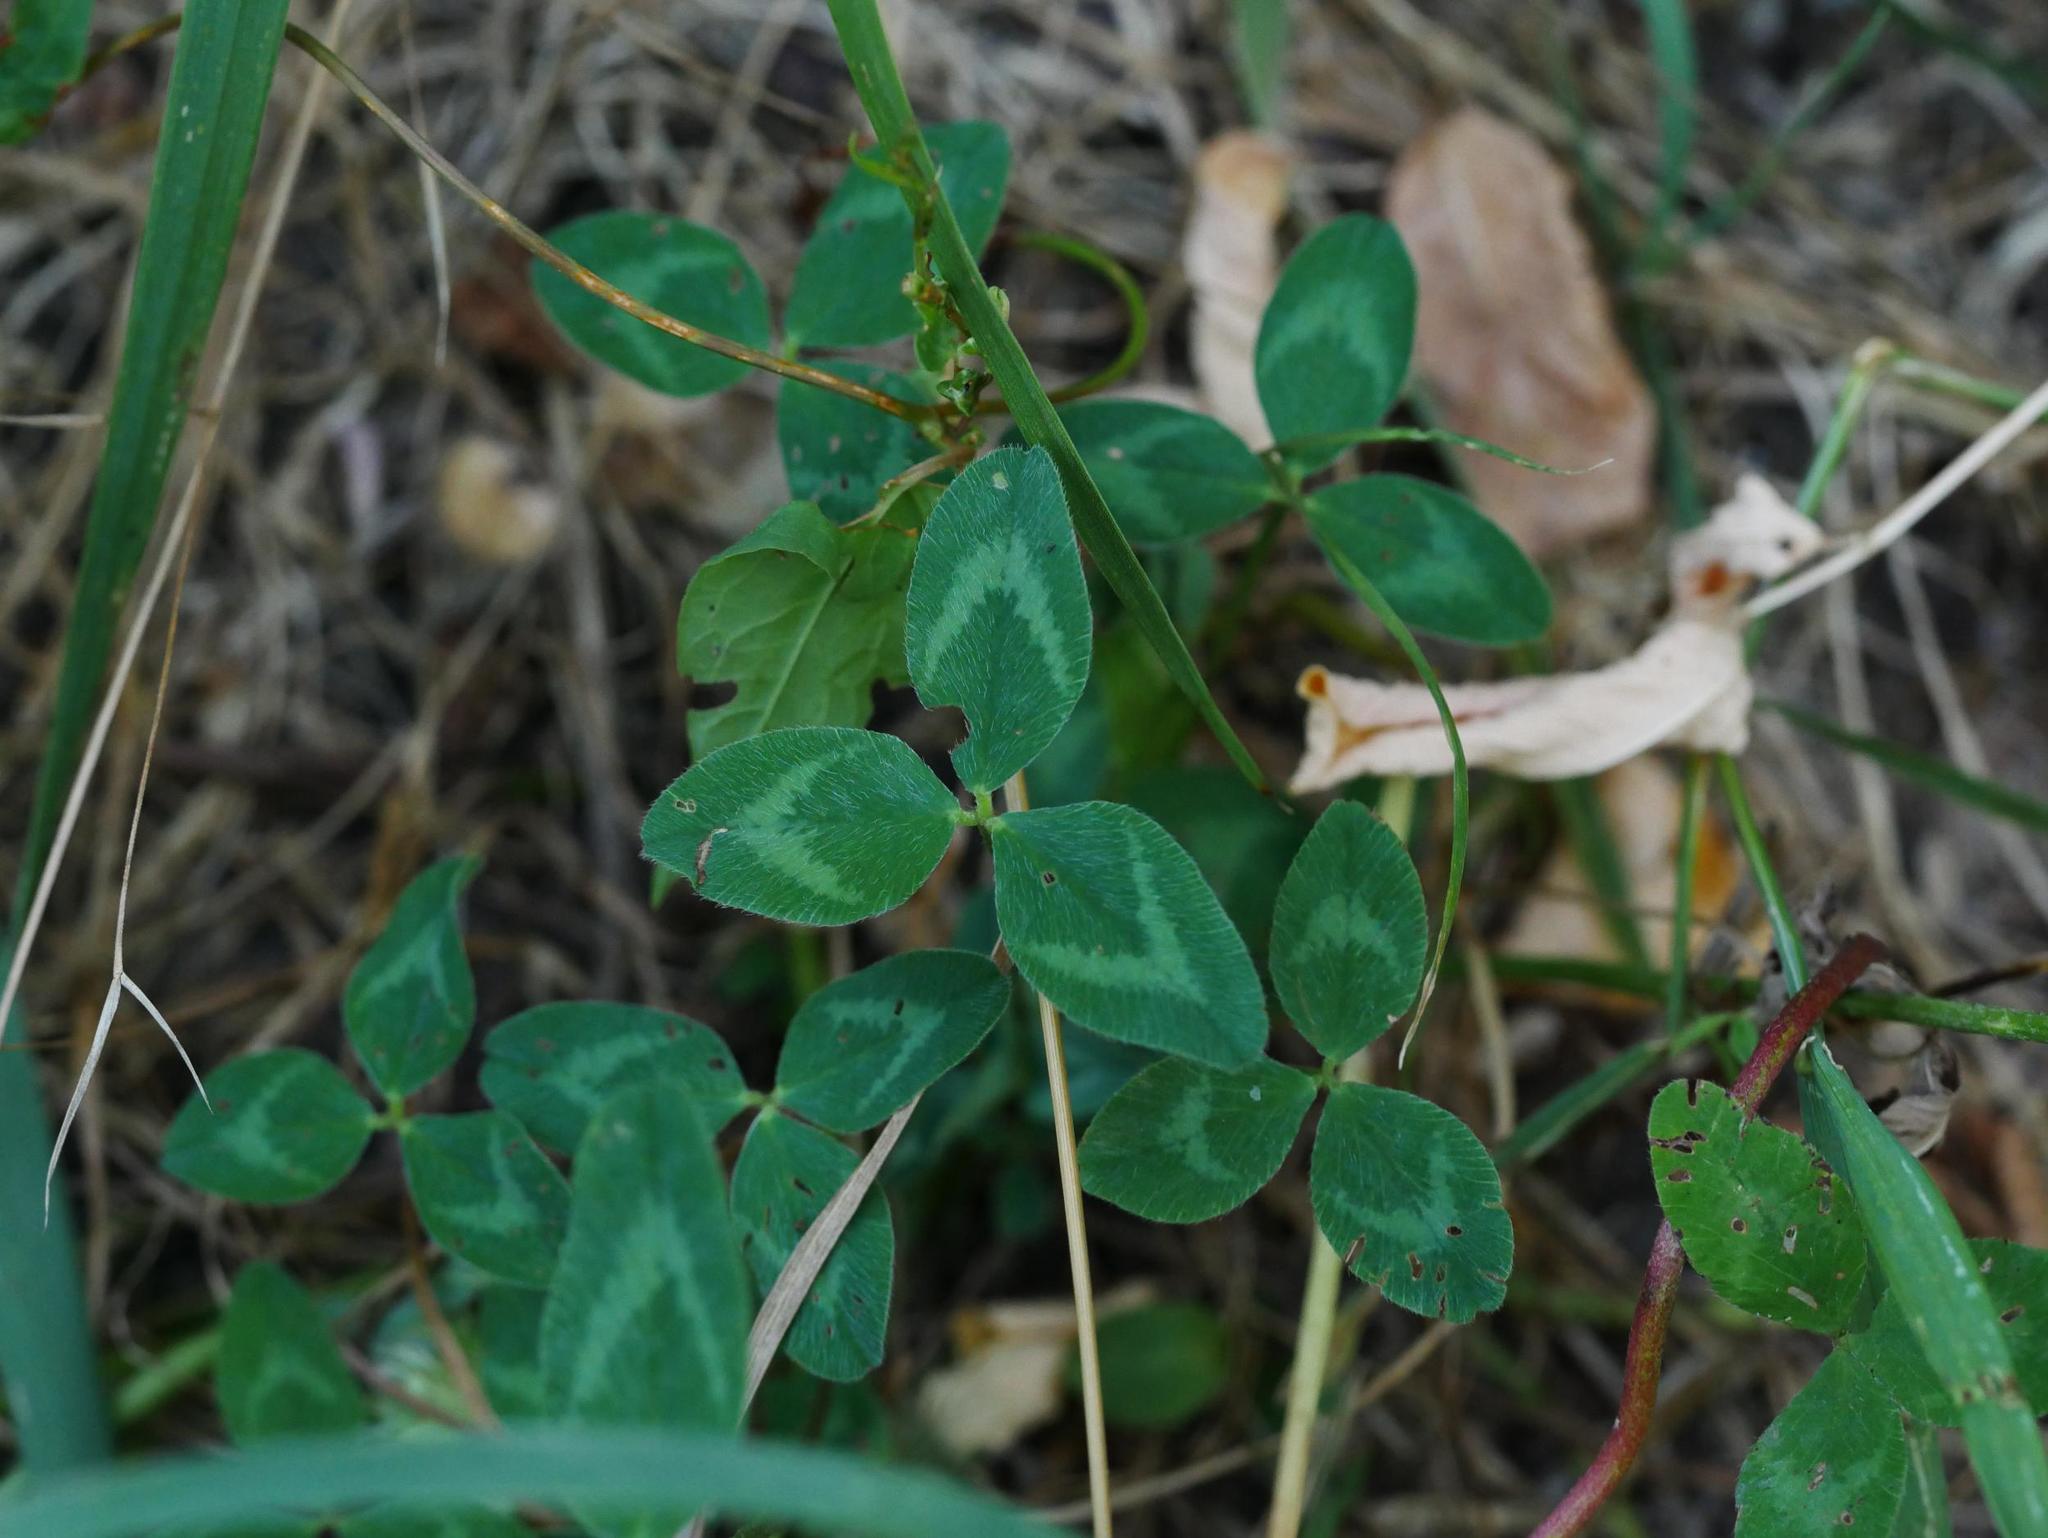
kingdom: Plantae
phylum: Tracheophyta
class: Magnoliopsida
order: Fabales
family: Fabaceae
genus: Trifolium
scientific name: Trifolium pratense
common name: Red clover
